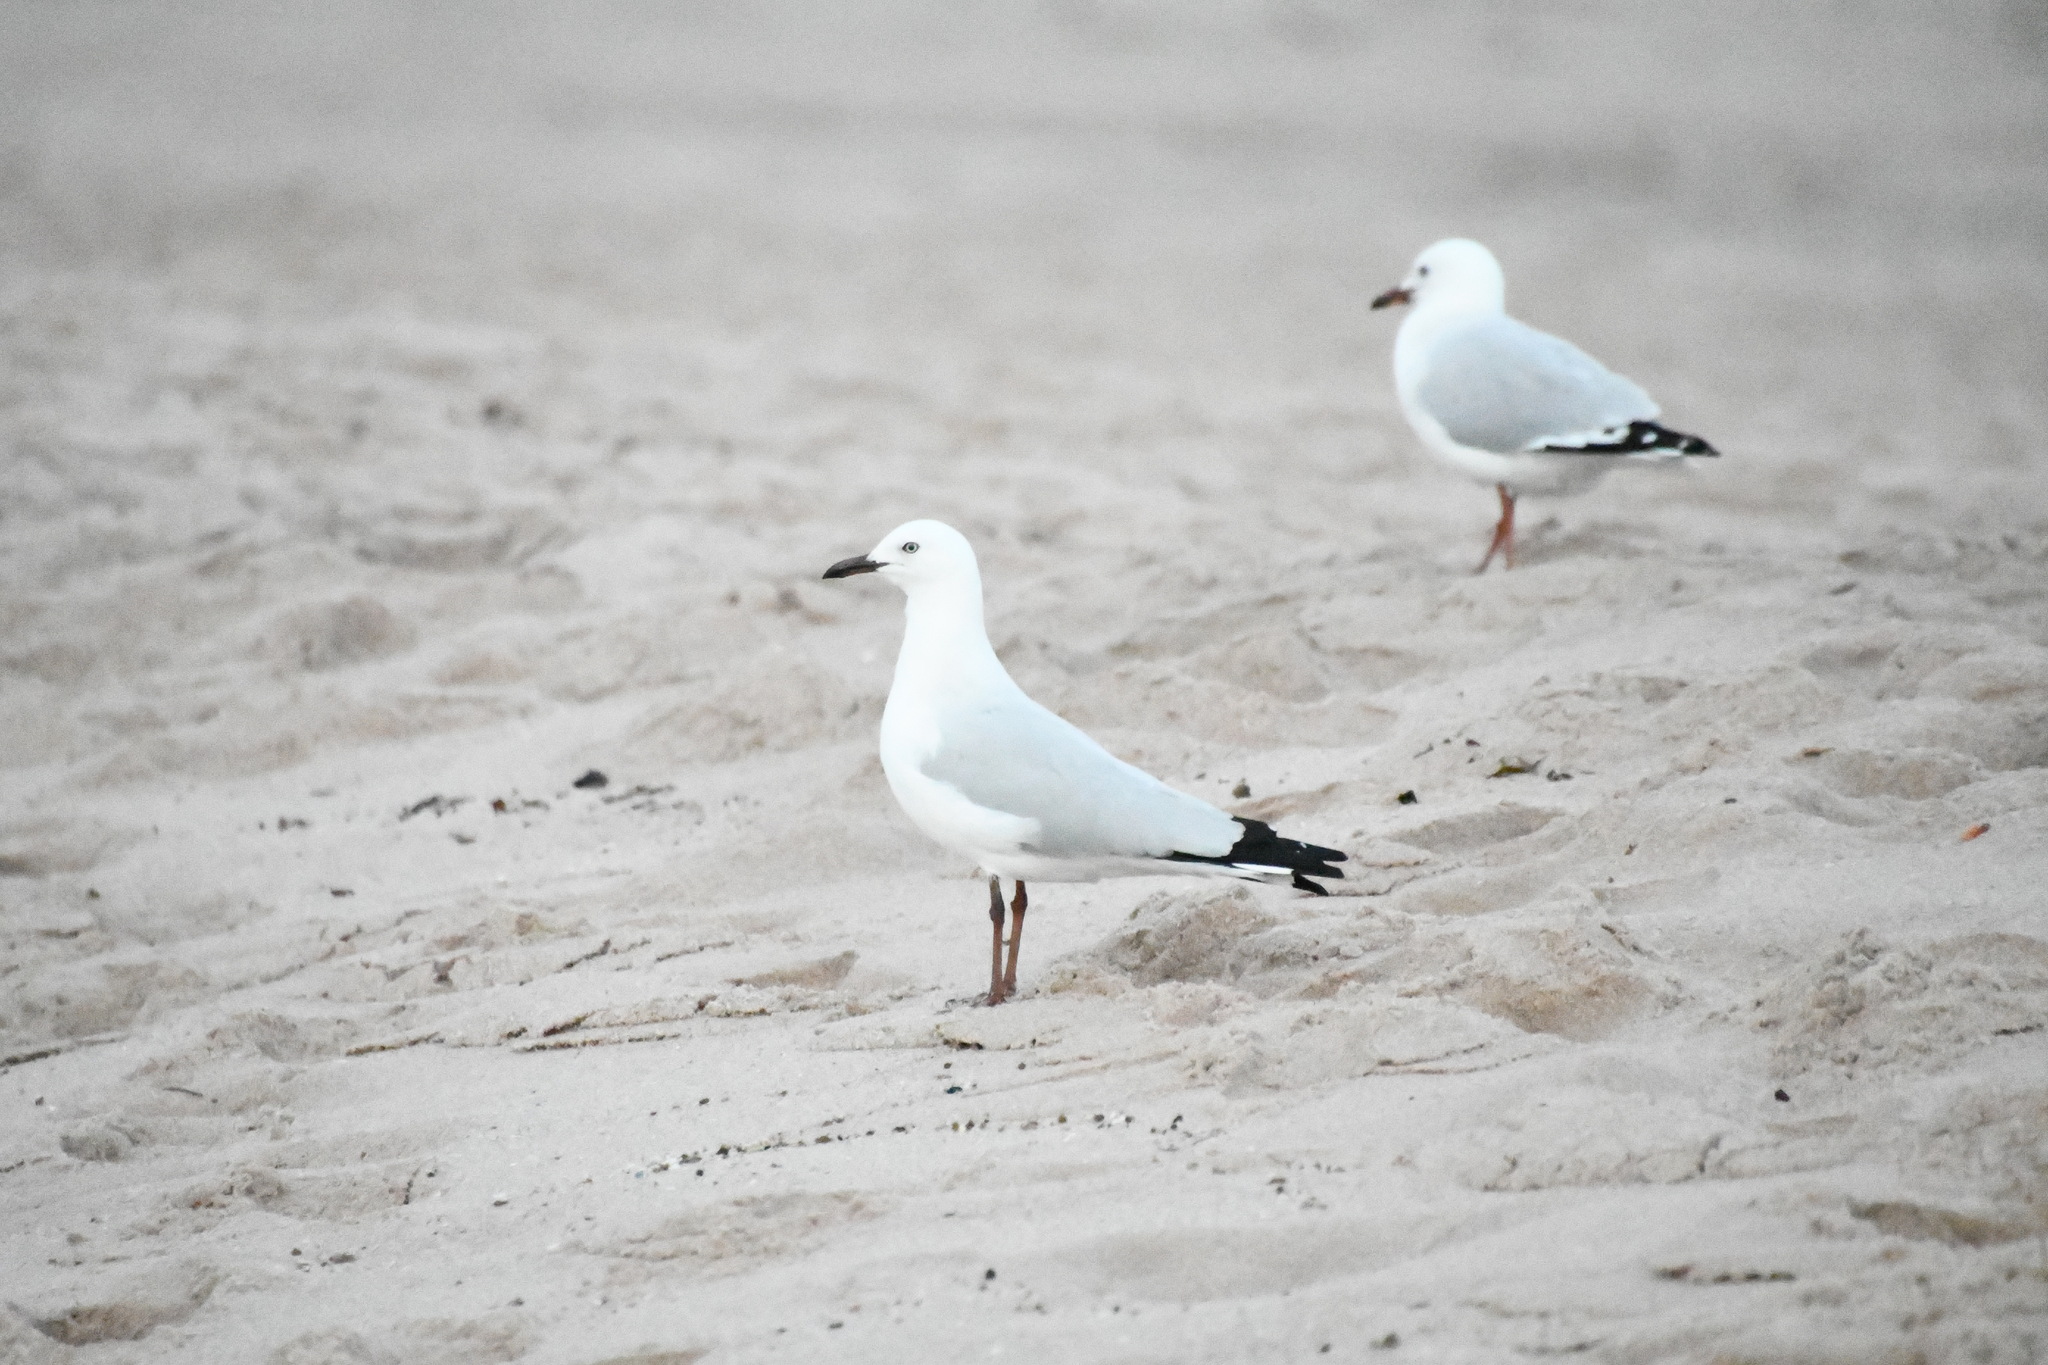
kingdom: Animalia
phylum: Chordata
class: Aves
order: Charadriiformes
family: Laridae
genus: Chroicocephalus
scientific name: Chroicocephalus novaehollandiae
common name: Silver gull
